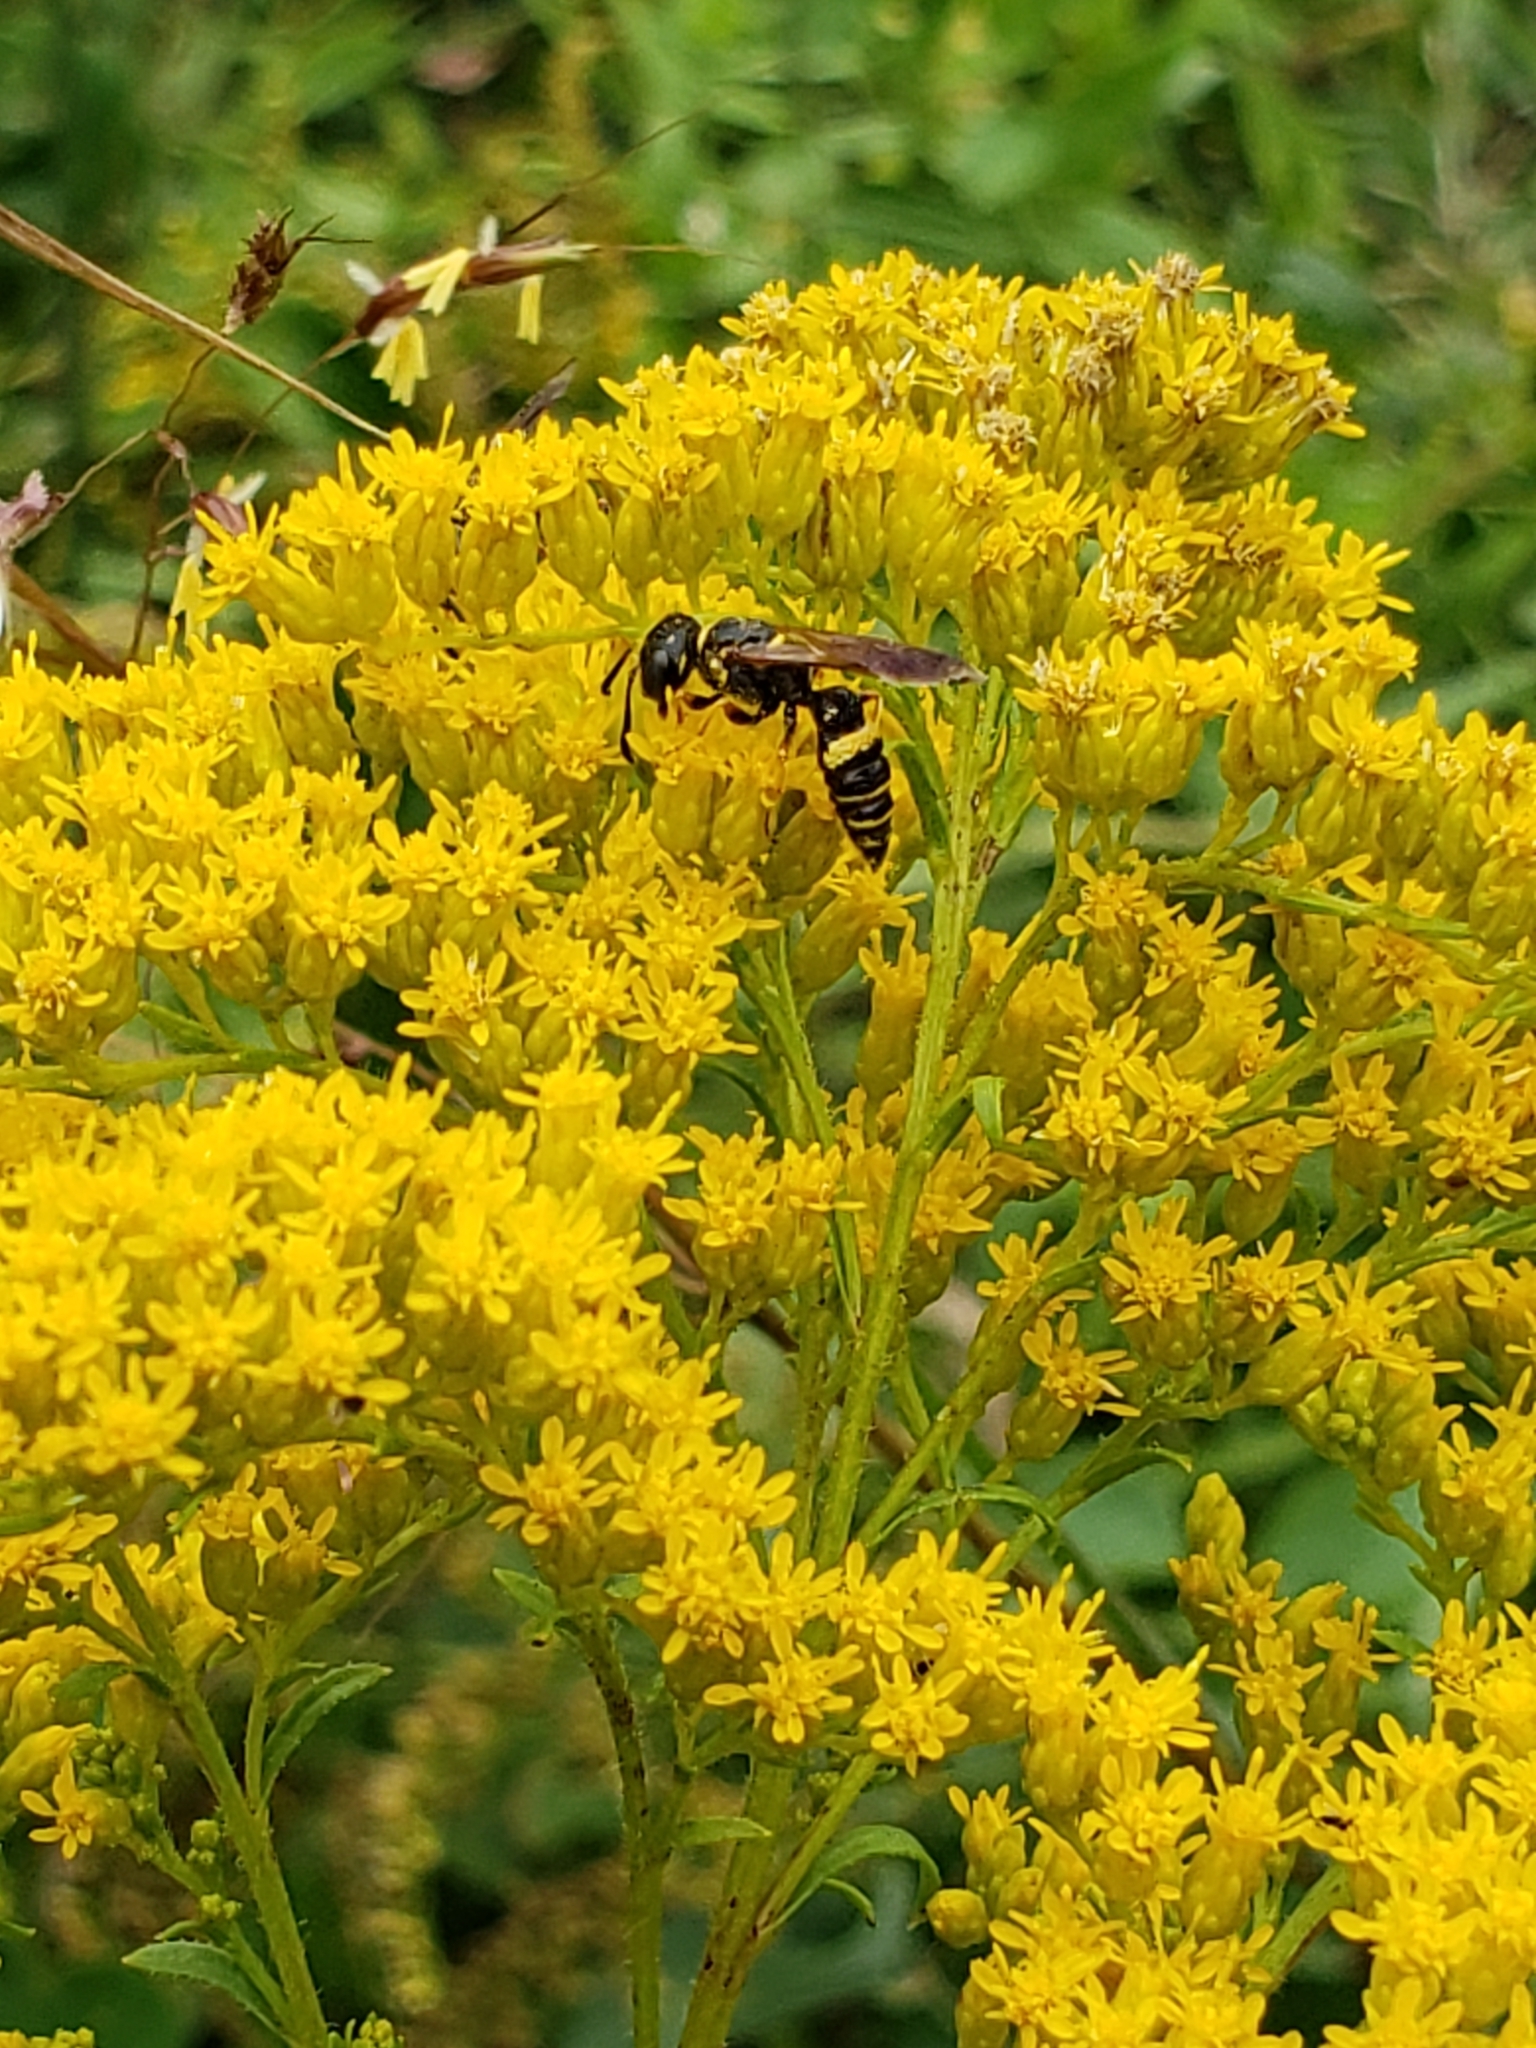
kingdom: Animalia
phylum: Arthropoda
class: Insecta
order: Hymenoptera
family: Crabronidae
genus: Philanthus
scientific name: Philanthus gibbosus
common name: Humped beewolf
